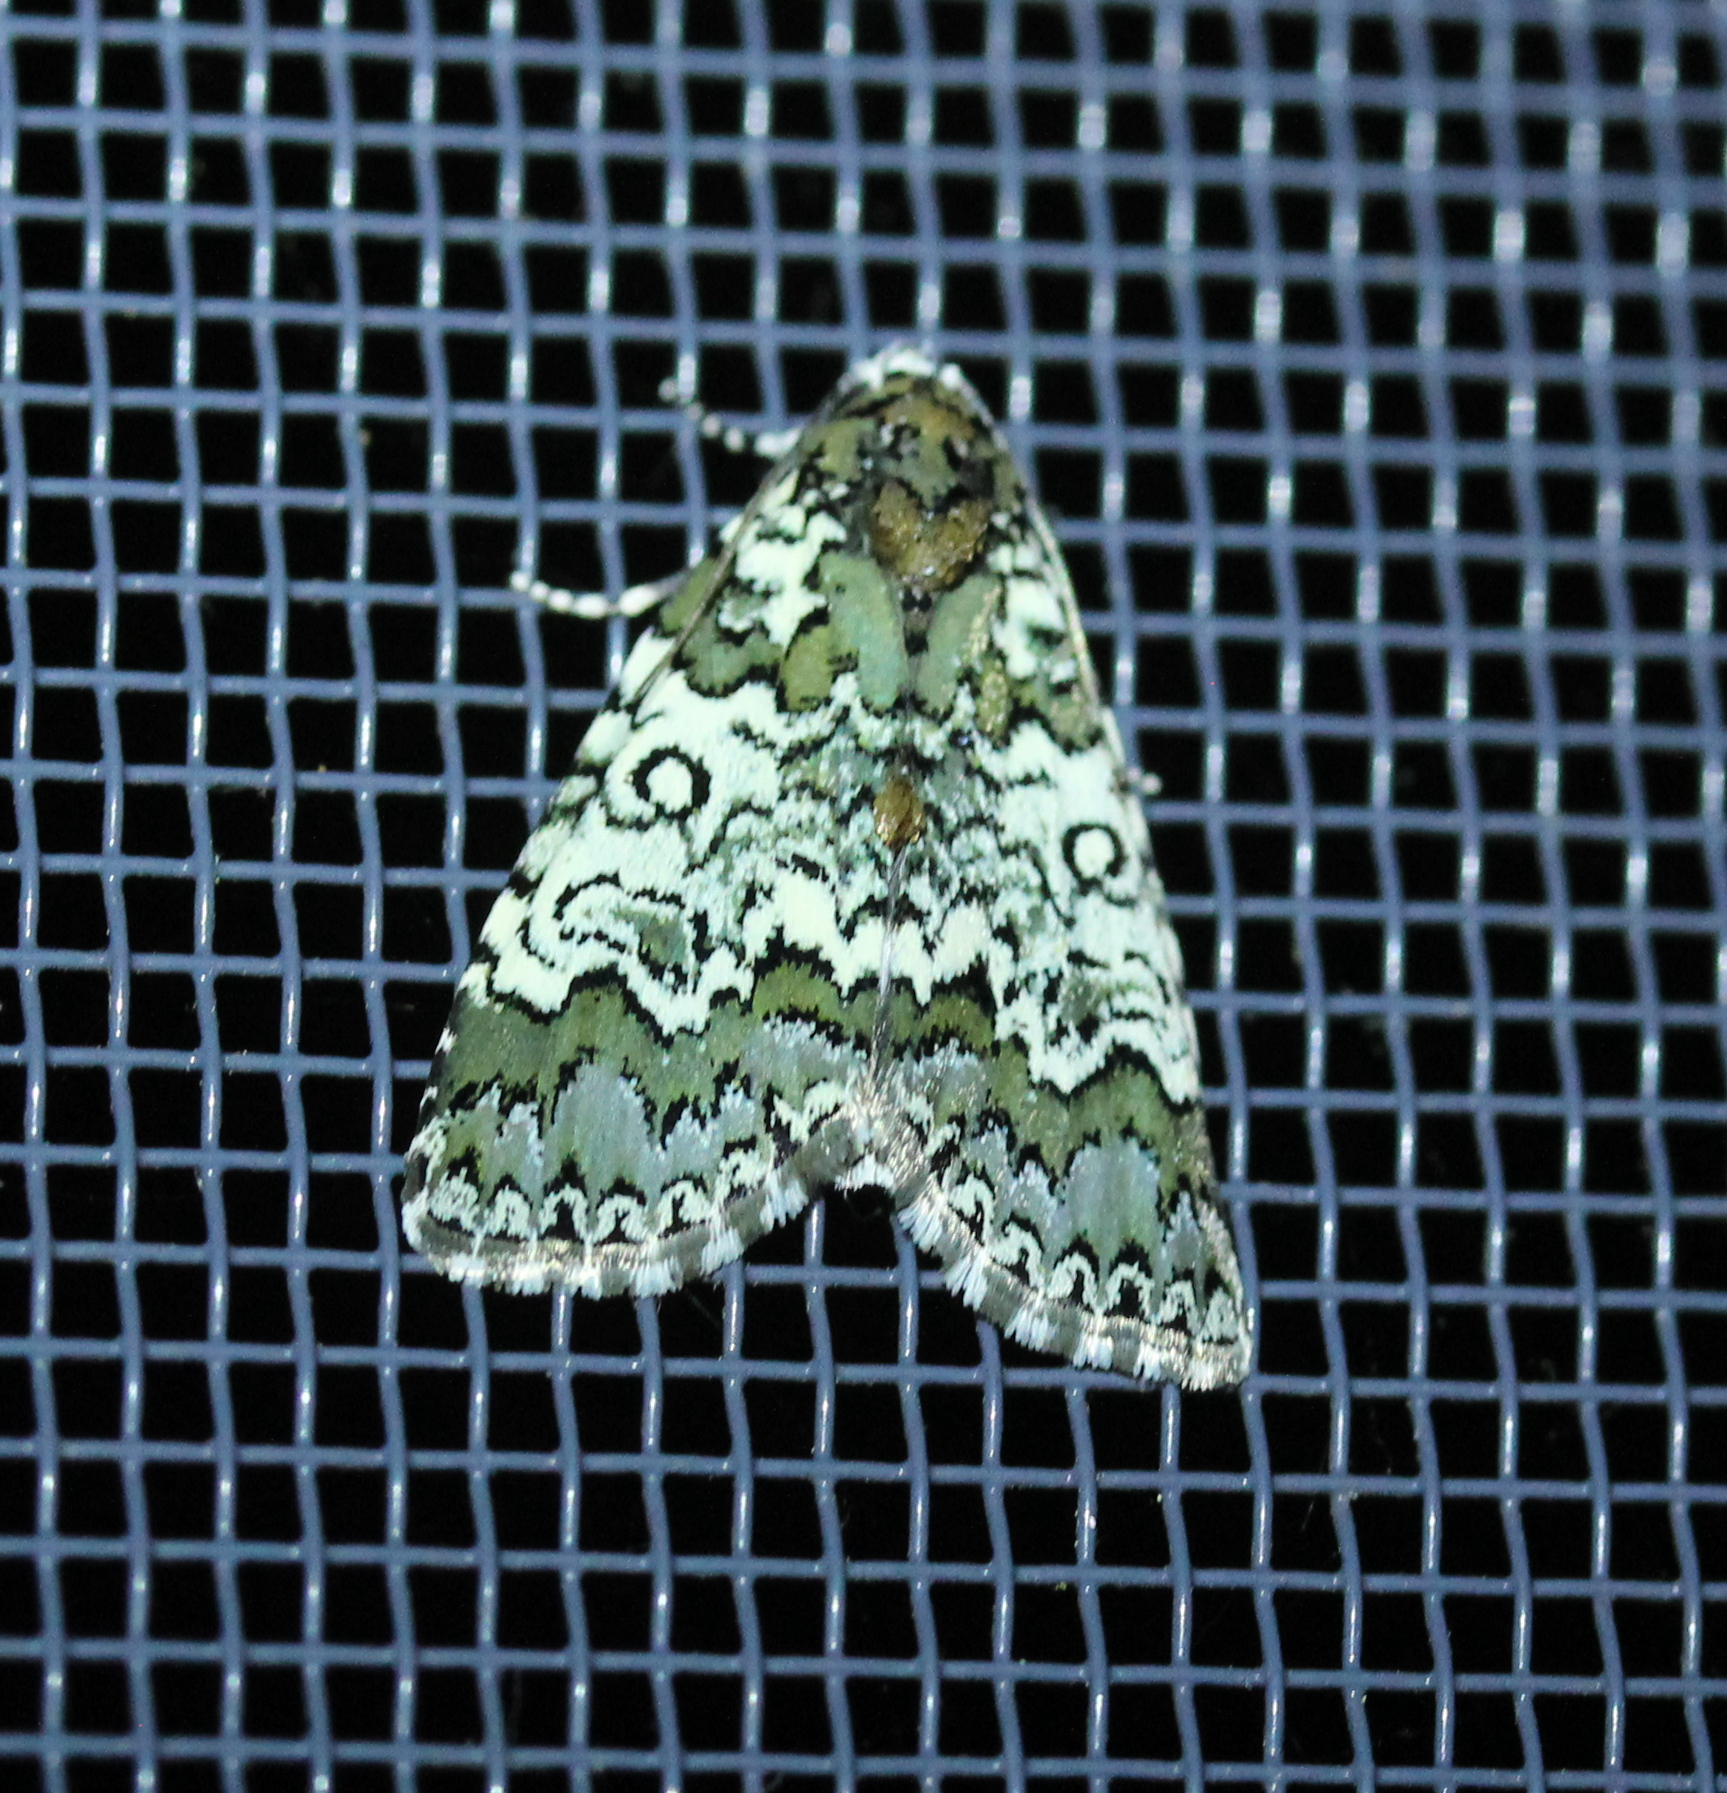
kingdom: Animalia
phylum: Arthropoda
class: Insecta
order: Lepidoptera
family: Noctuidae
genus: Cerma
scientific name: Cerma cora
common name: Bird dropping moth
